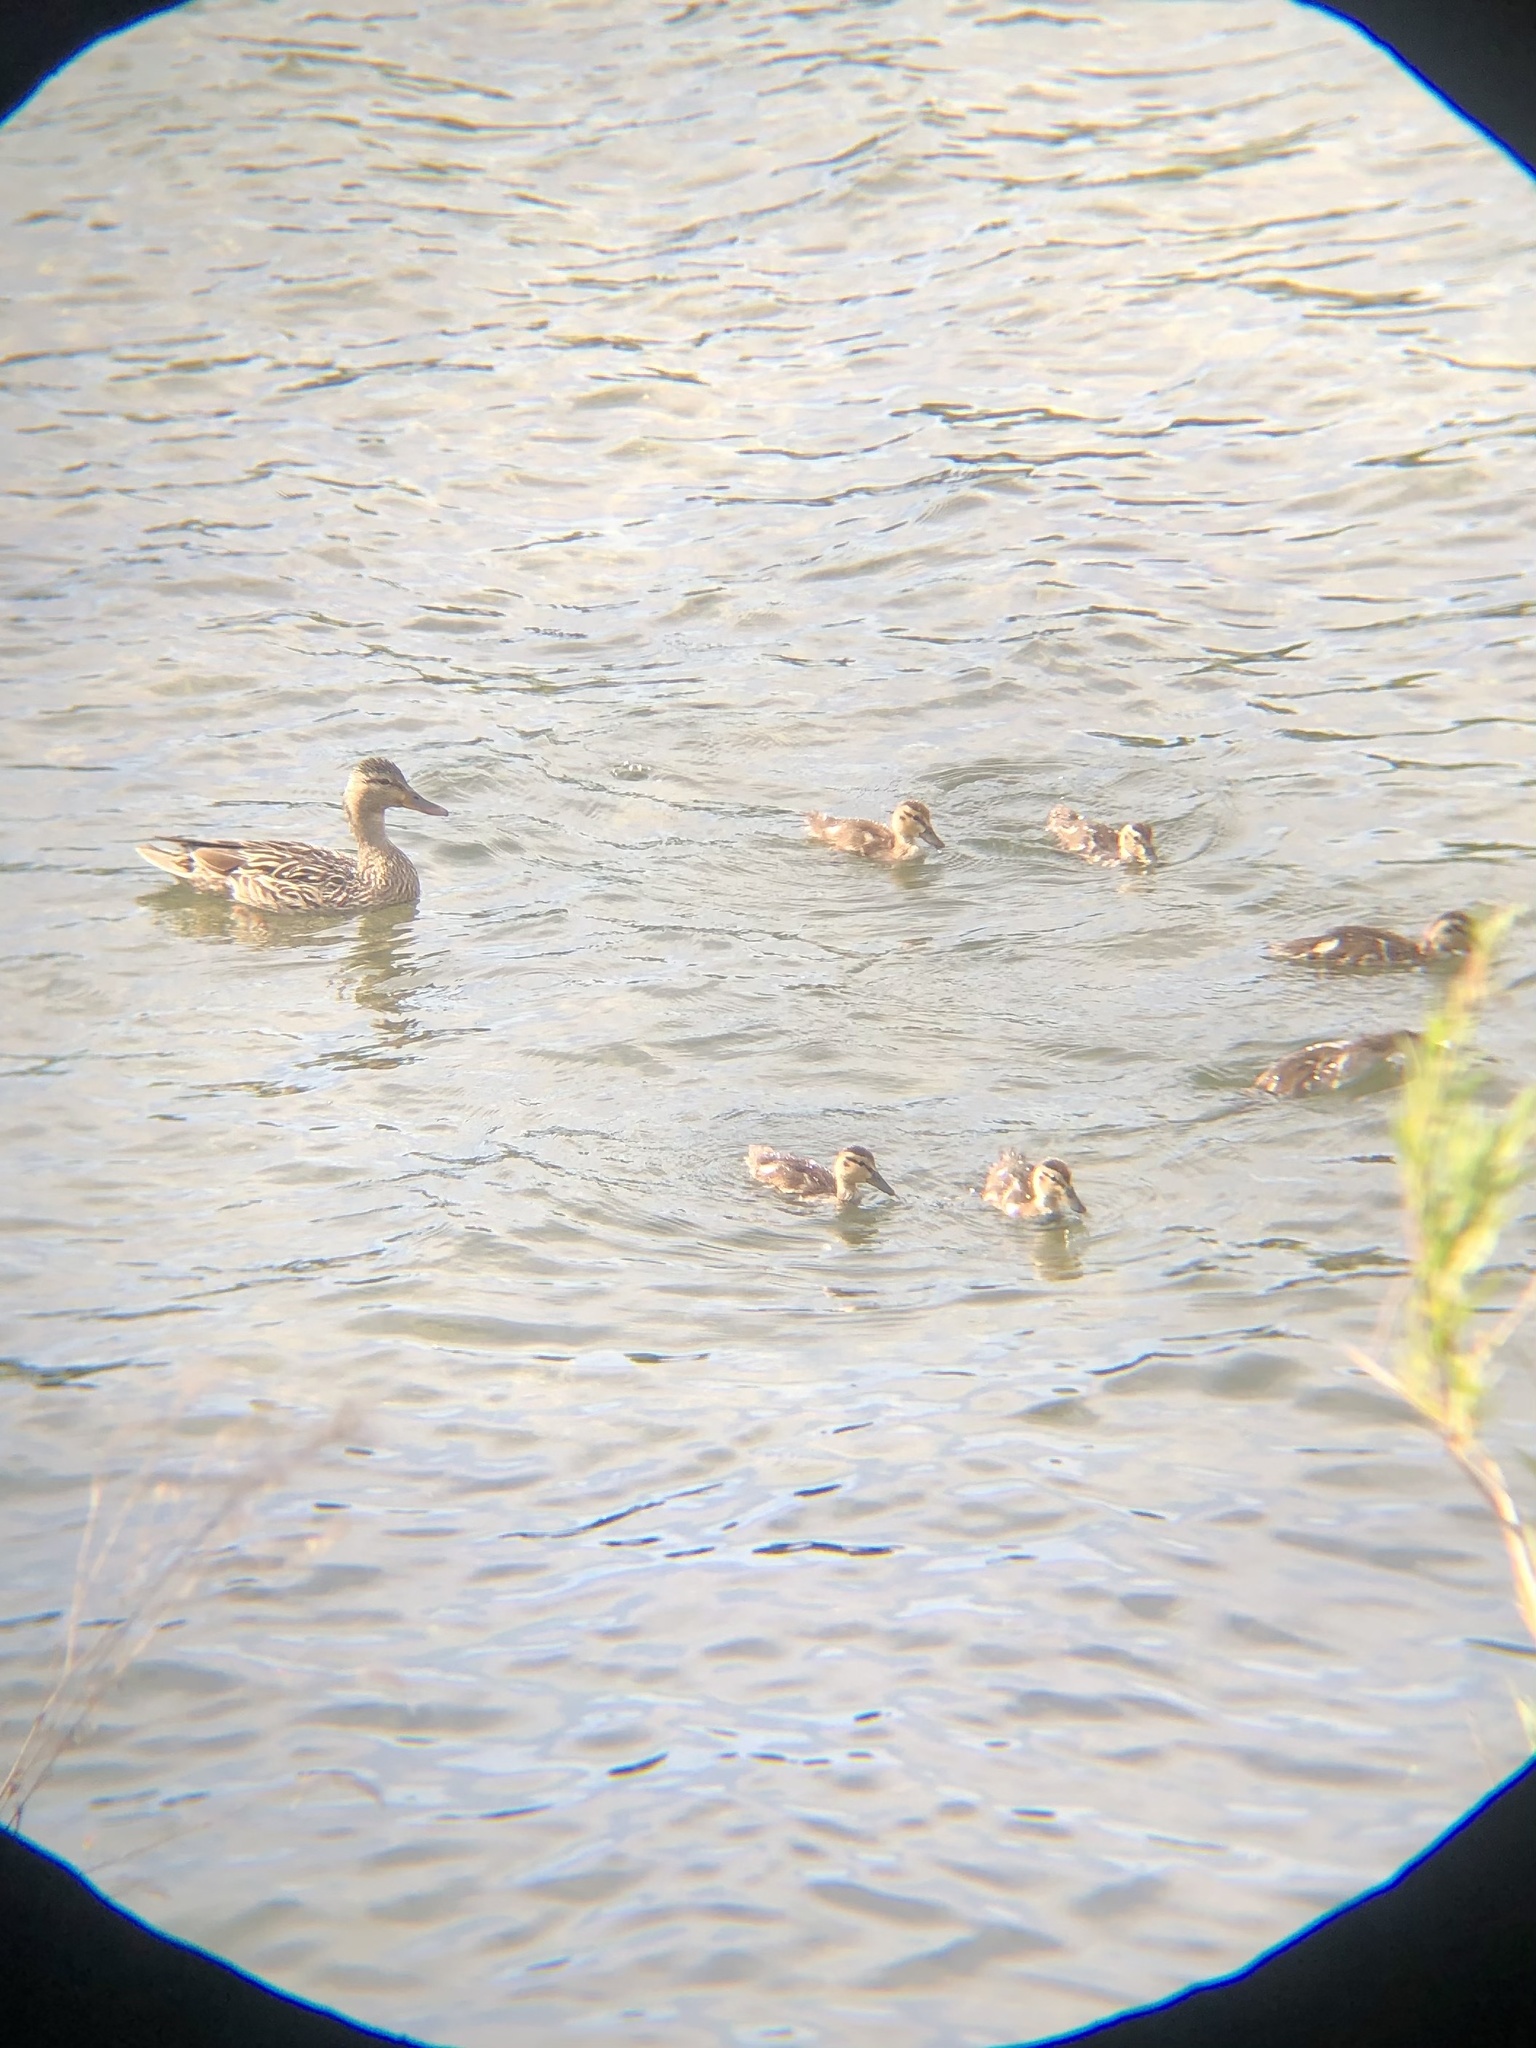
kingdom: Animalia
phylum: Chordata
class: Aves
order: Anseriformes
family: Anatidae
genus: Anas
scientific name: Anas platyrhynchos
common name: Mallard
